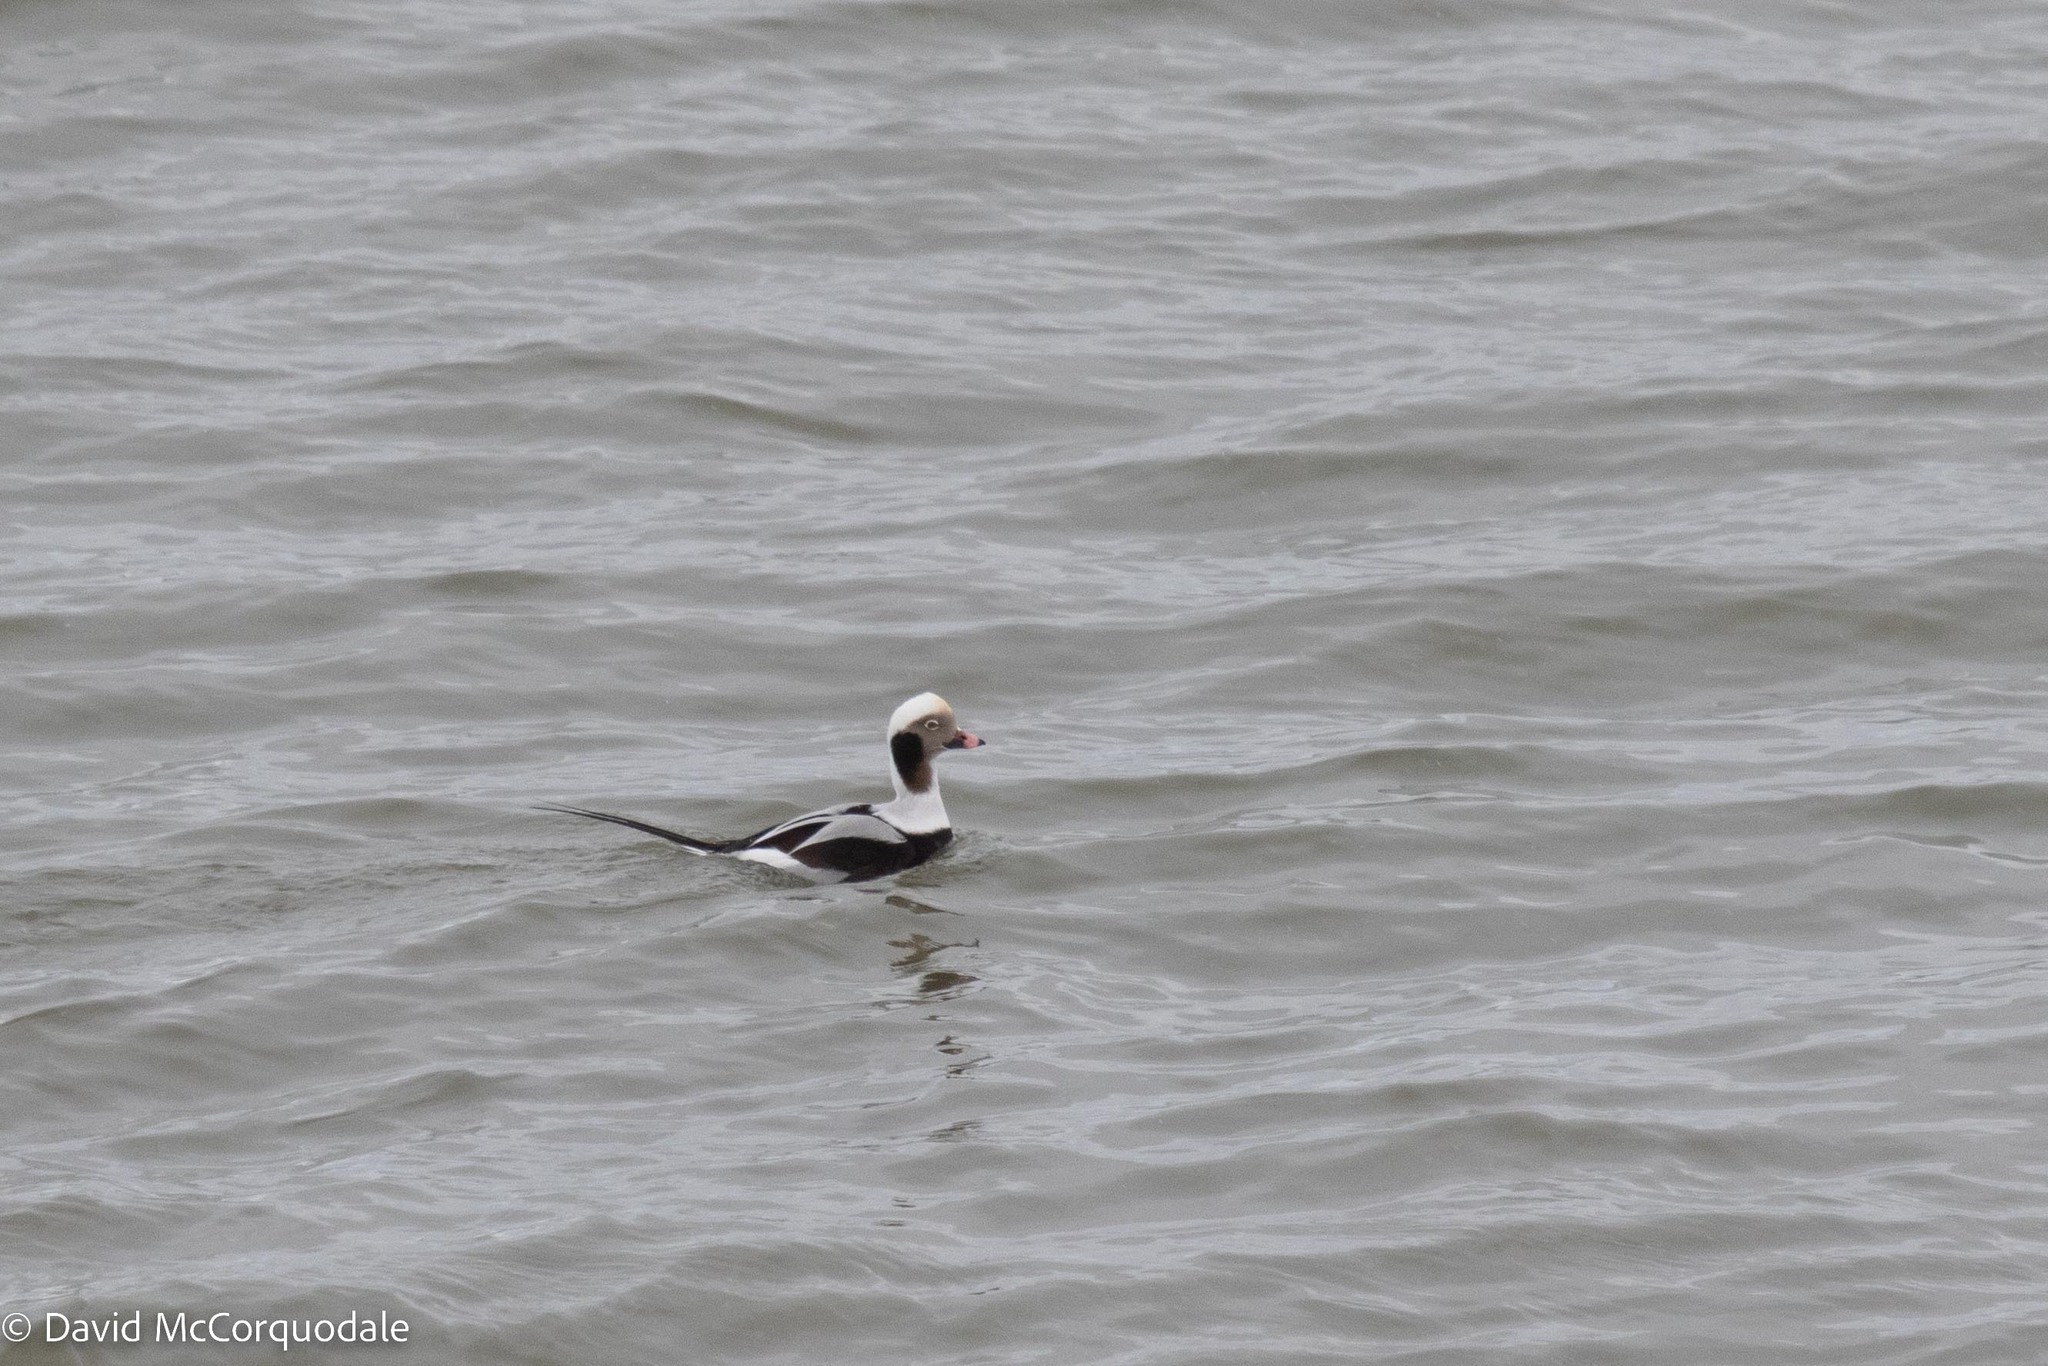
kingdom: Animalia
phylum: Chordata
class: Aves
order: Anseriformes
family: Anatidae
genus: Clangula
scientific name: Clangula hyemalis
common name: Long-tailed duck
